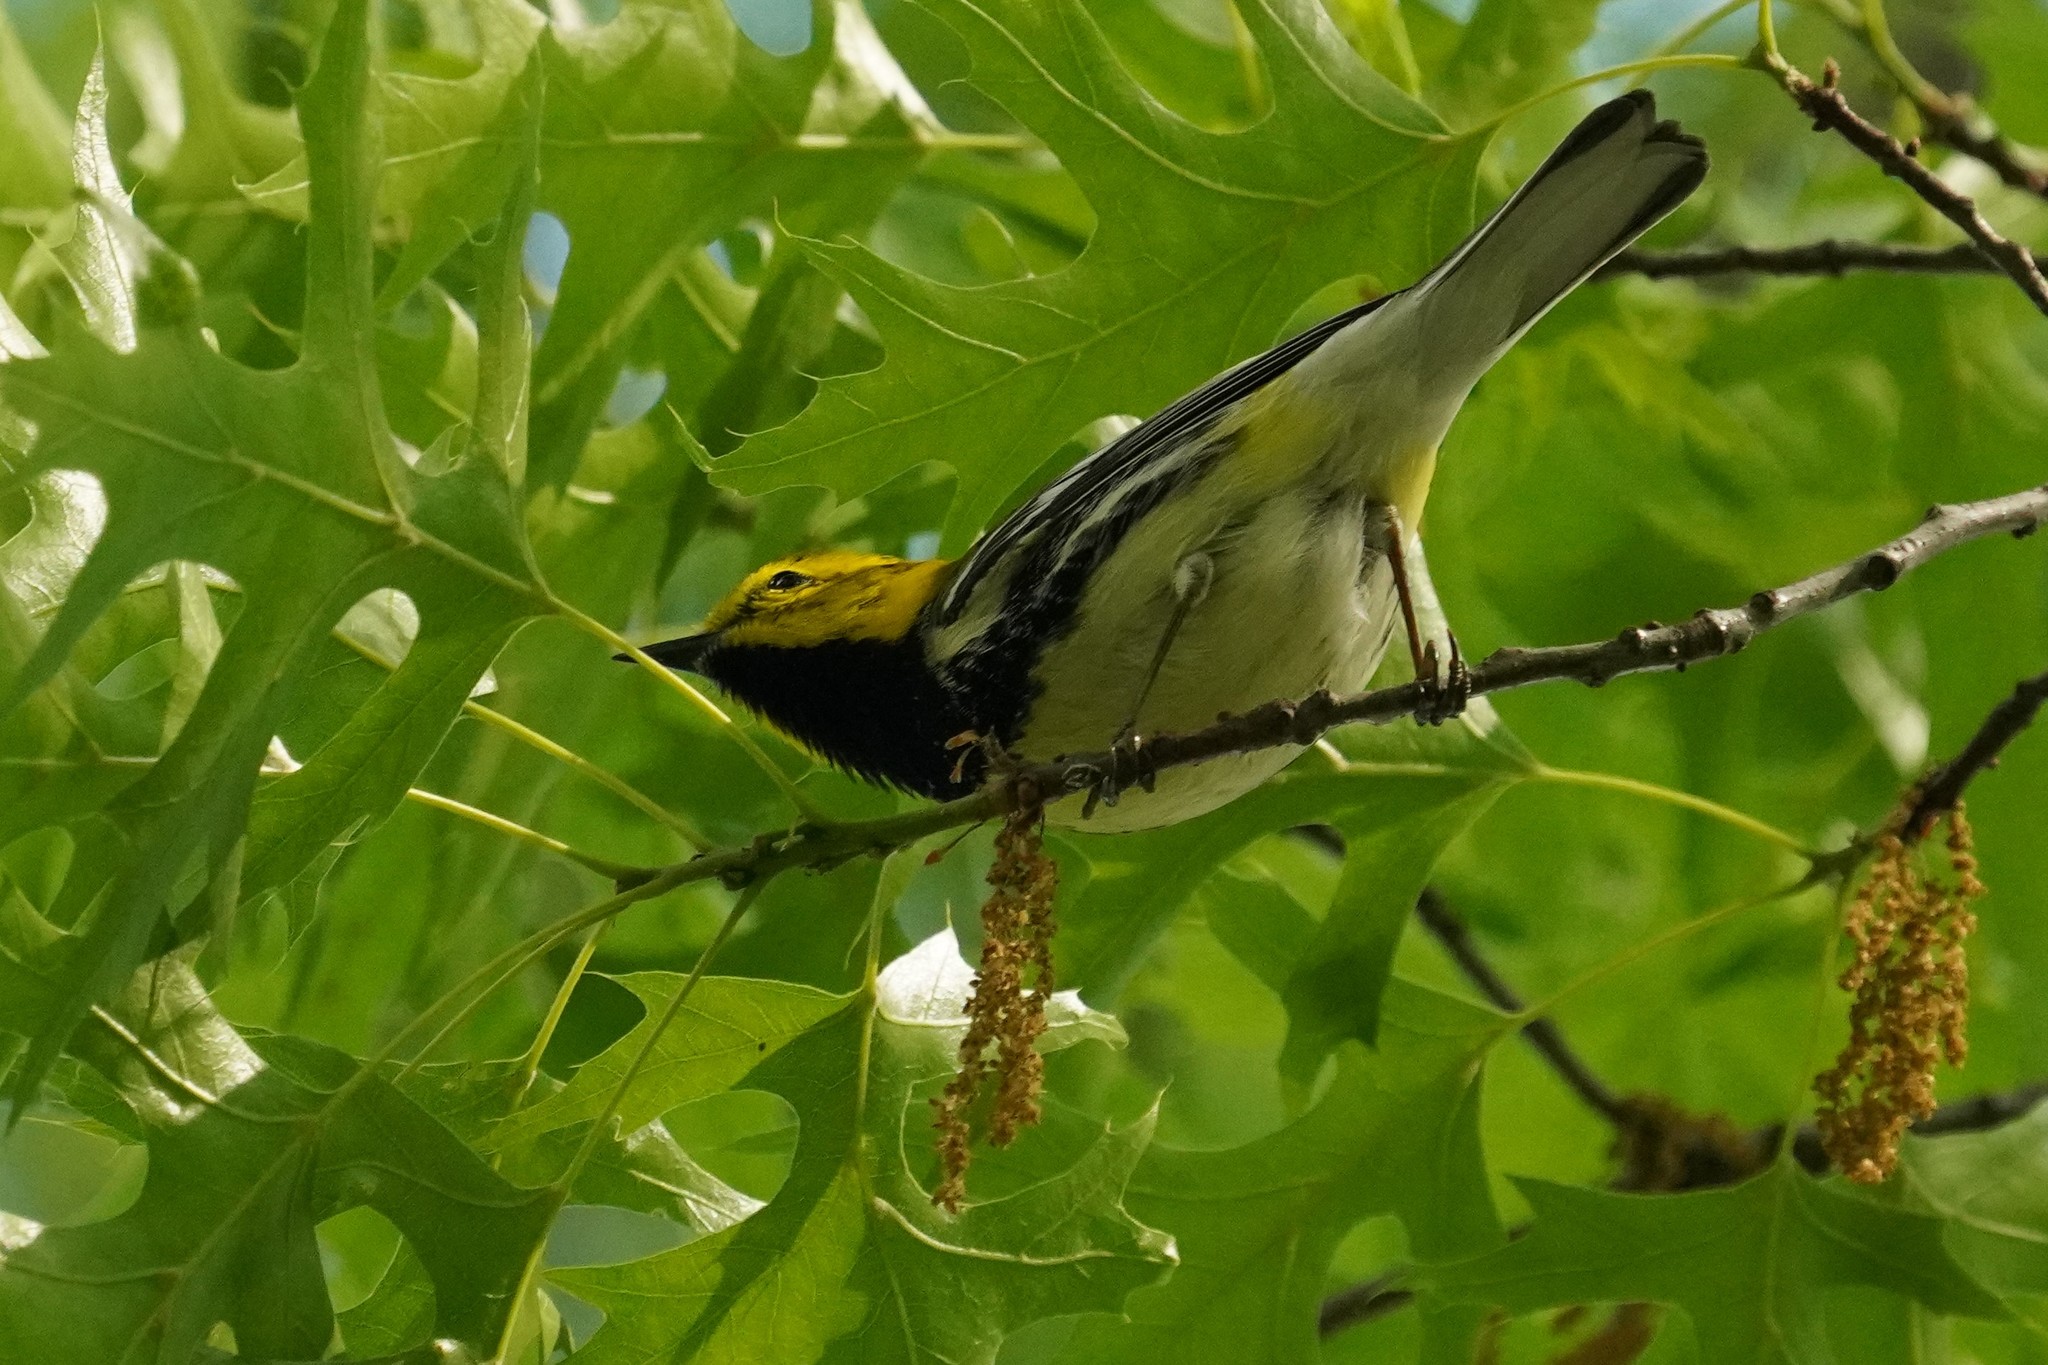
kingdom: Animalia
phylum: Chordata
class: Aves
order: Passeriformes
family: Parulidae
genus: Setophaga
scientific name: Setophaga virens
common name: Black-throated green warbler
